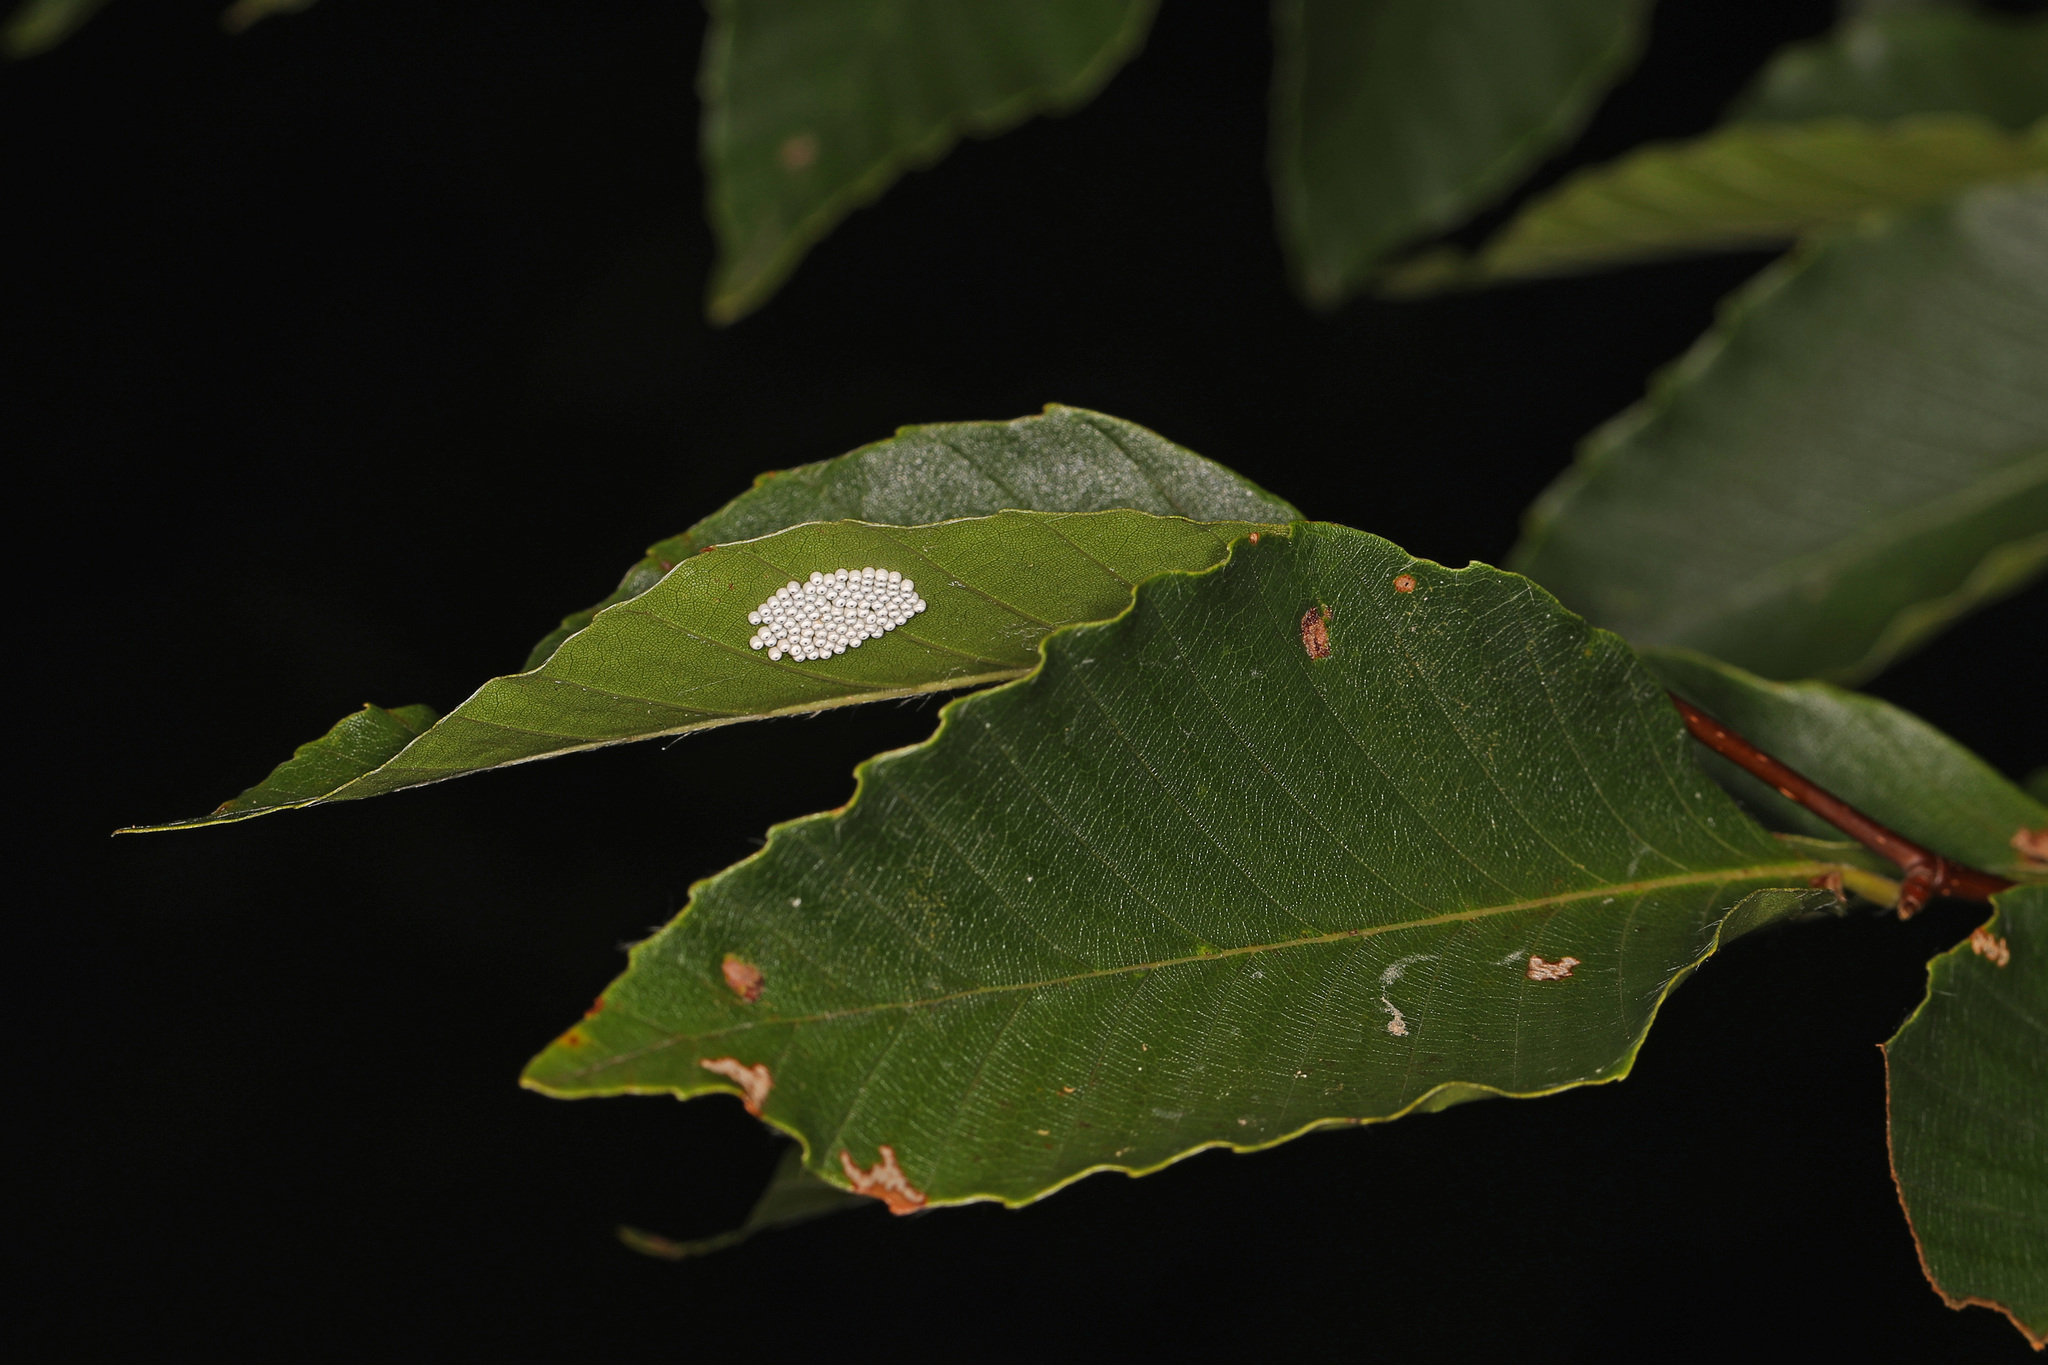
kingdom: Animalia
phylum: Arthropoda
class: Insecta
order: Lepidoptera
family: Saturniidae
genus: Automeris
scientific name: Automeris io
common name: Io moth
